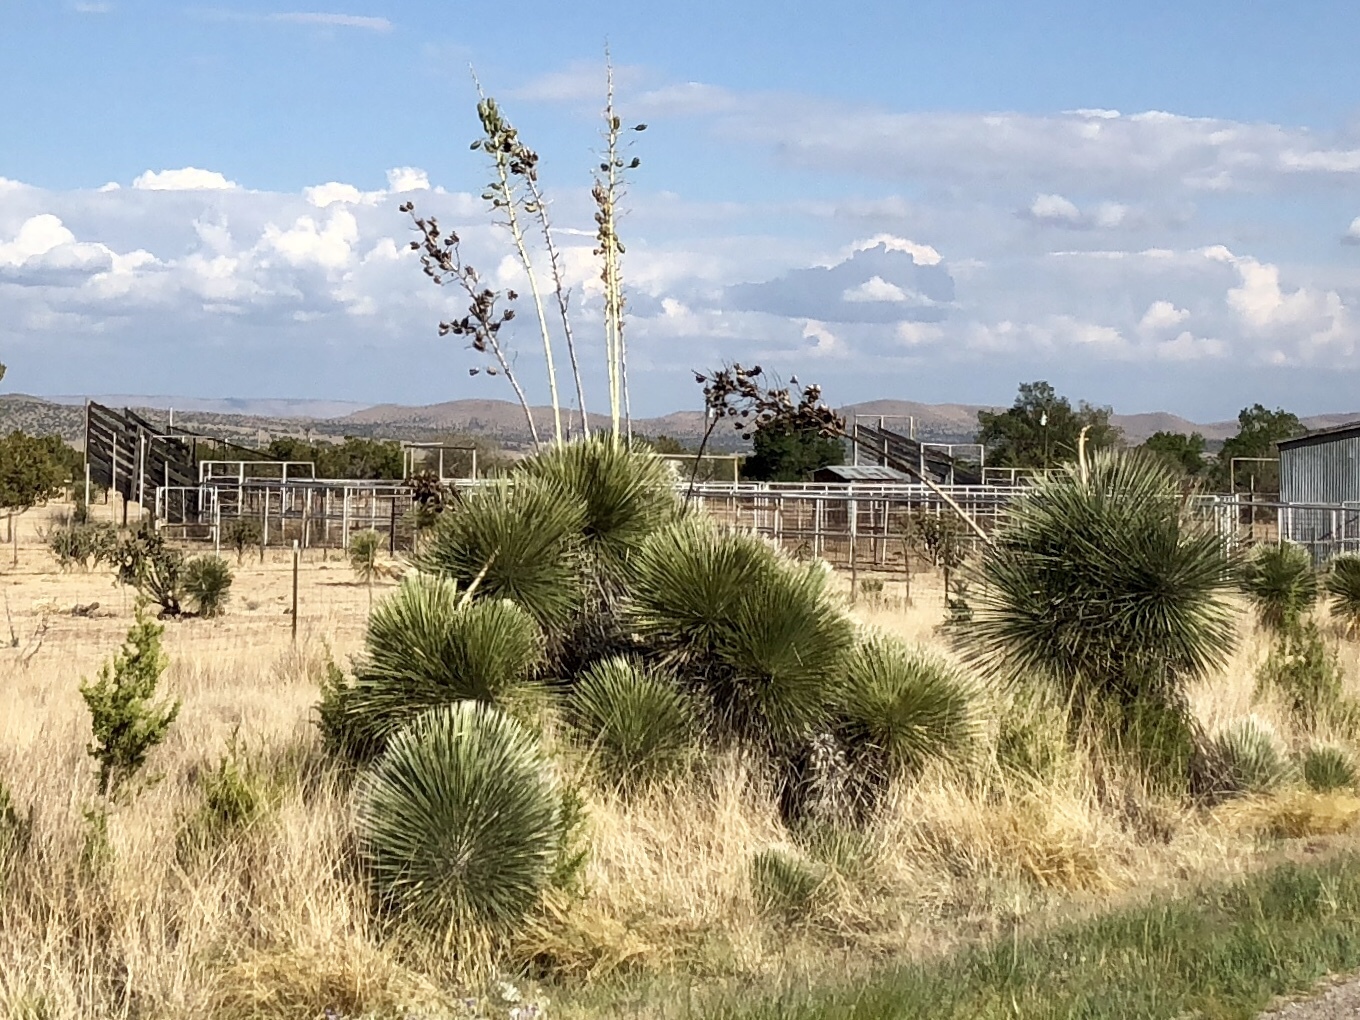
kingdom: Plantae
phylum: Tracheophyta
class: Liliopsida
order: Asparagales
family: Asparagaceae
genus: Yucca
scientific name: Yucca elata
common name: Palmella
